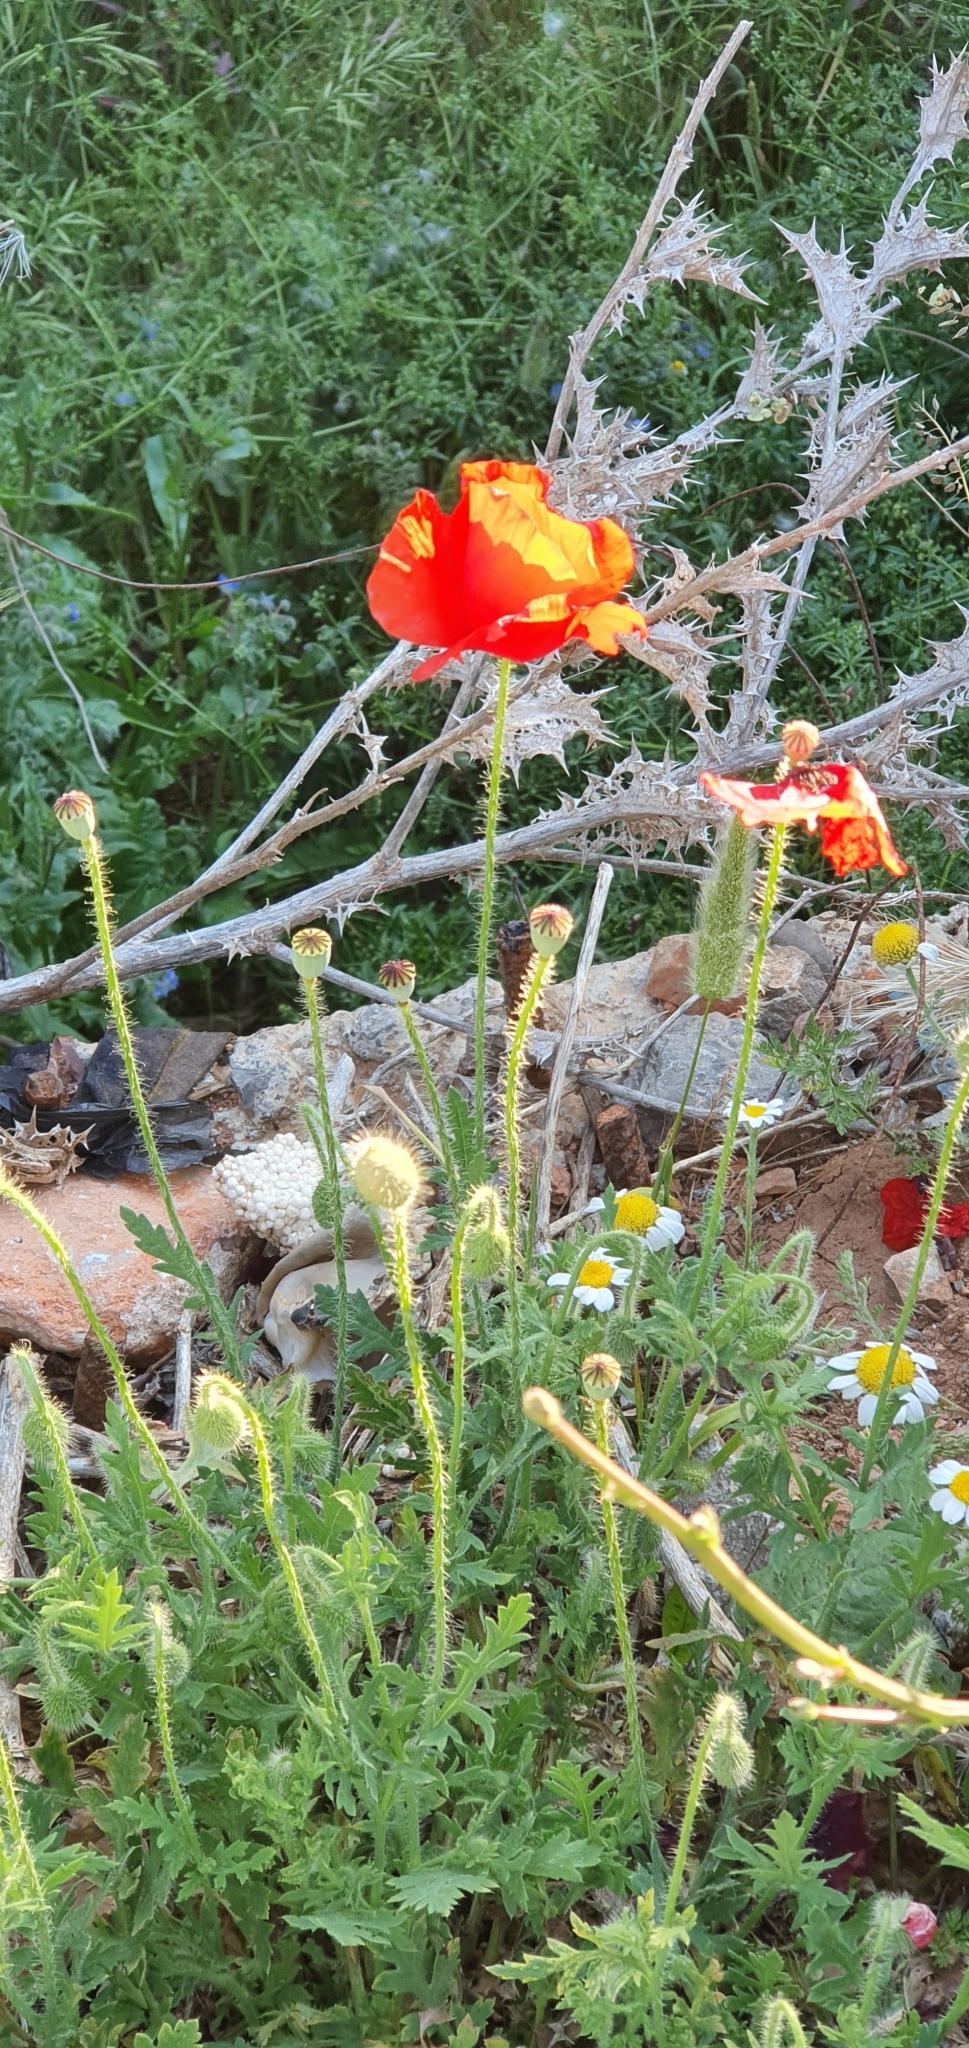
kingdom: Plantae
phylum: Tracheophyta
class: Magnoliopsida
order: Ranunculales
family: Papaveraceae
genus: Papaver
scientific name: Papaver rhoeas
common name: Corn poppy
